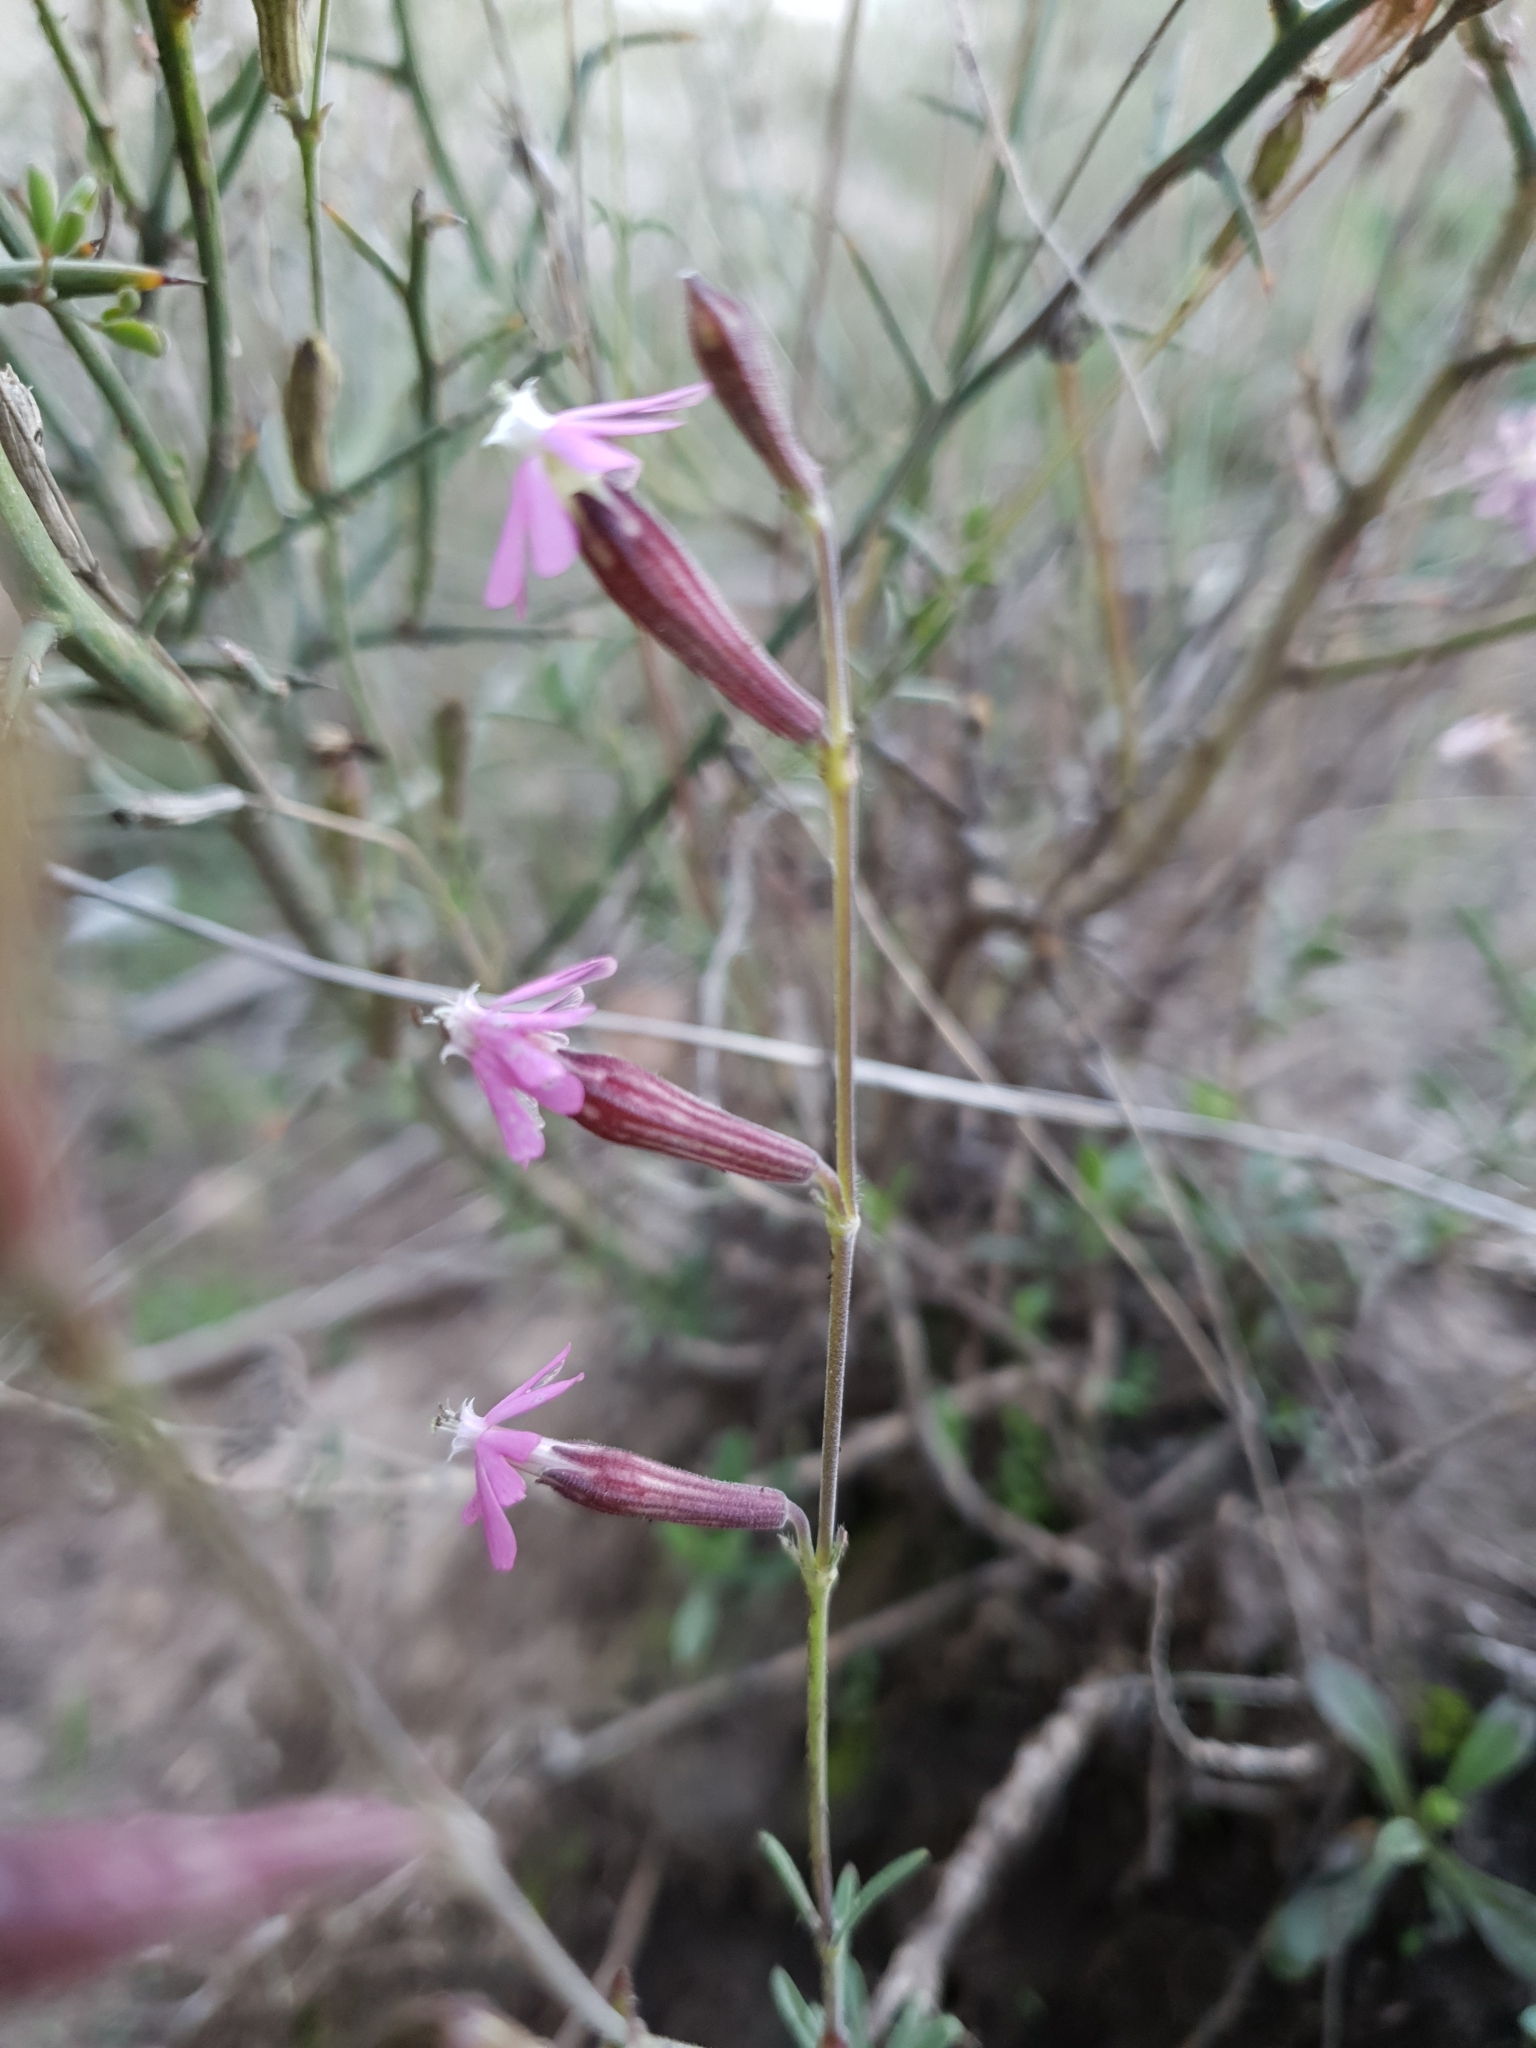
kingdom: Plantae
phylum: Tracheophyta
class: Magnoliopsida
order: Caryophyllales
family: Caryophyllaceae
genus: Silene
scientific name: Silene choulettii
